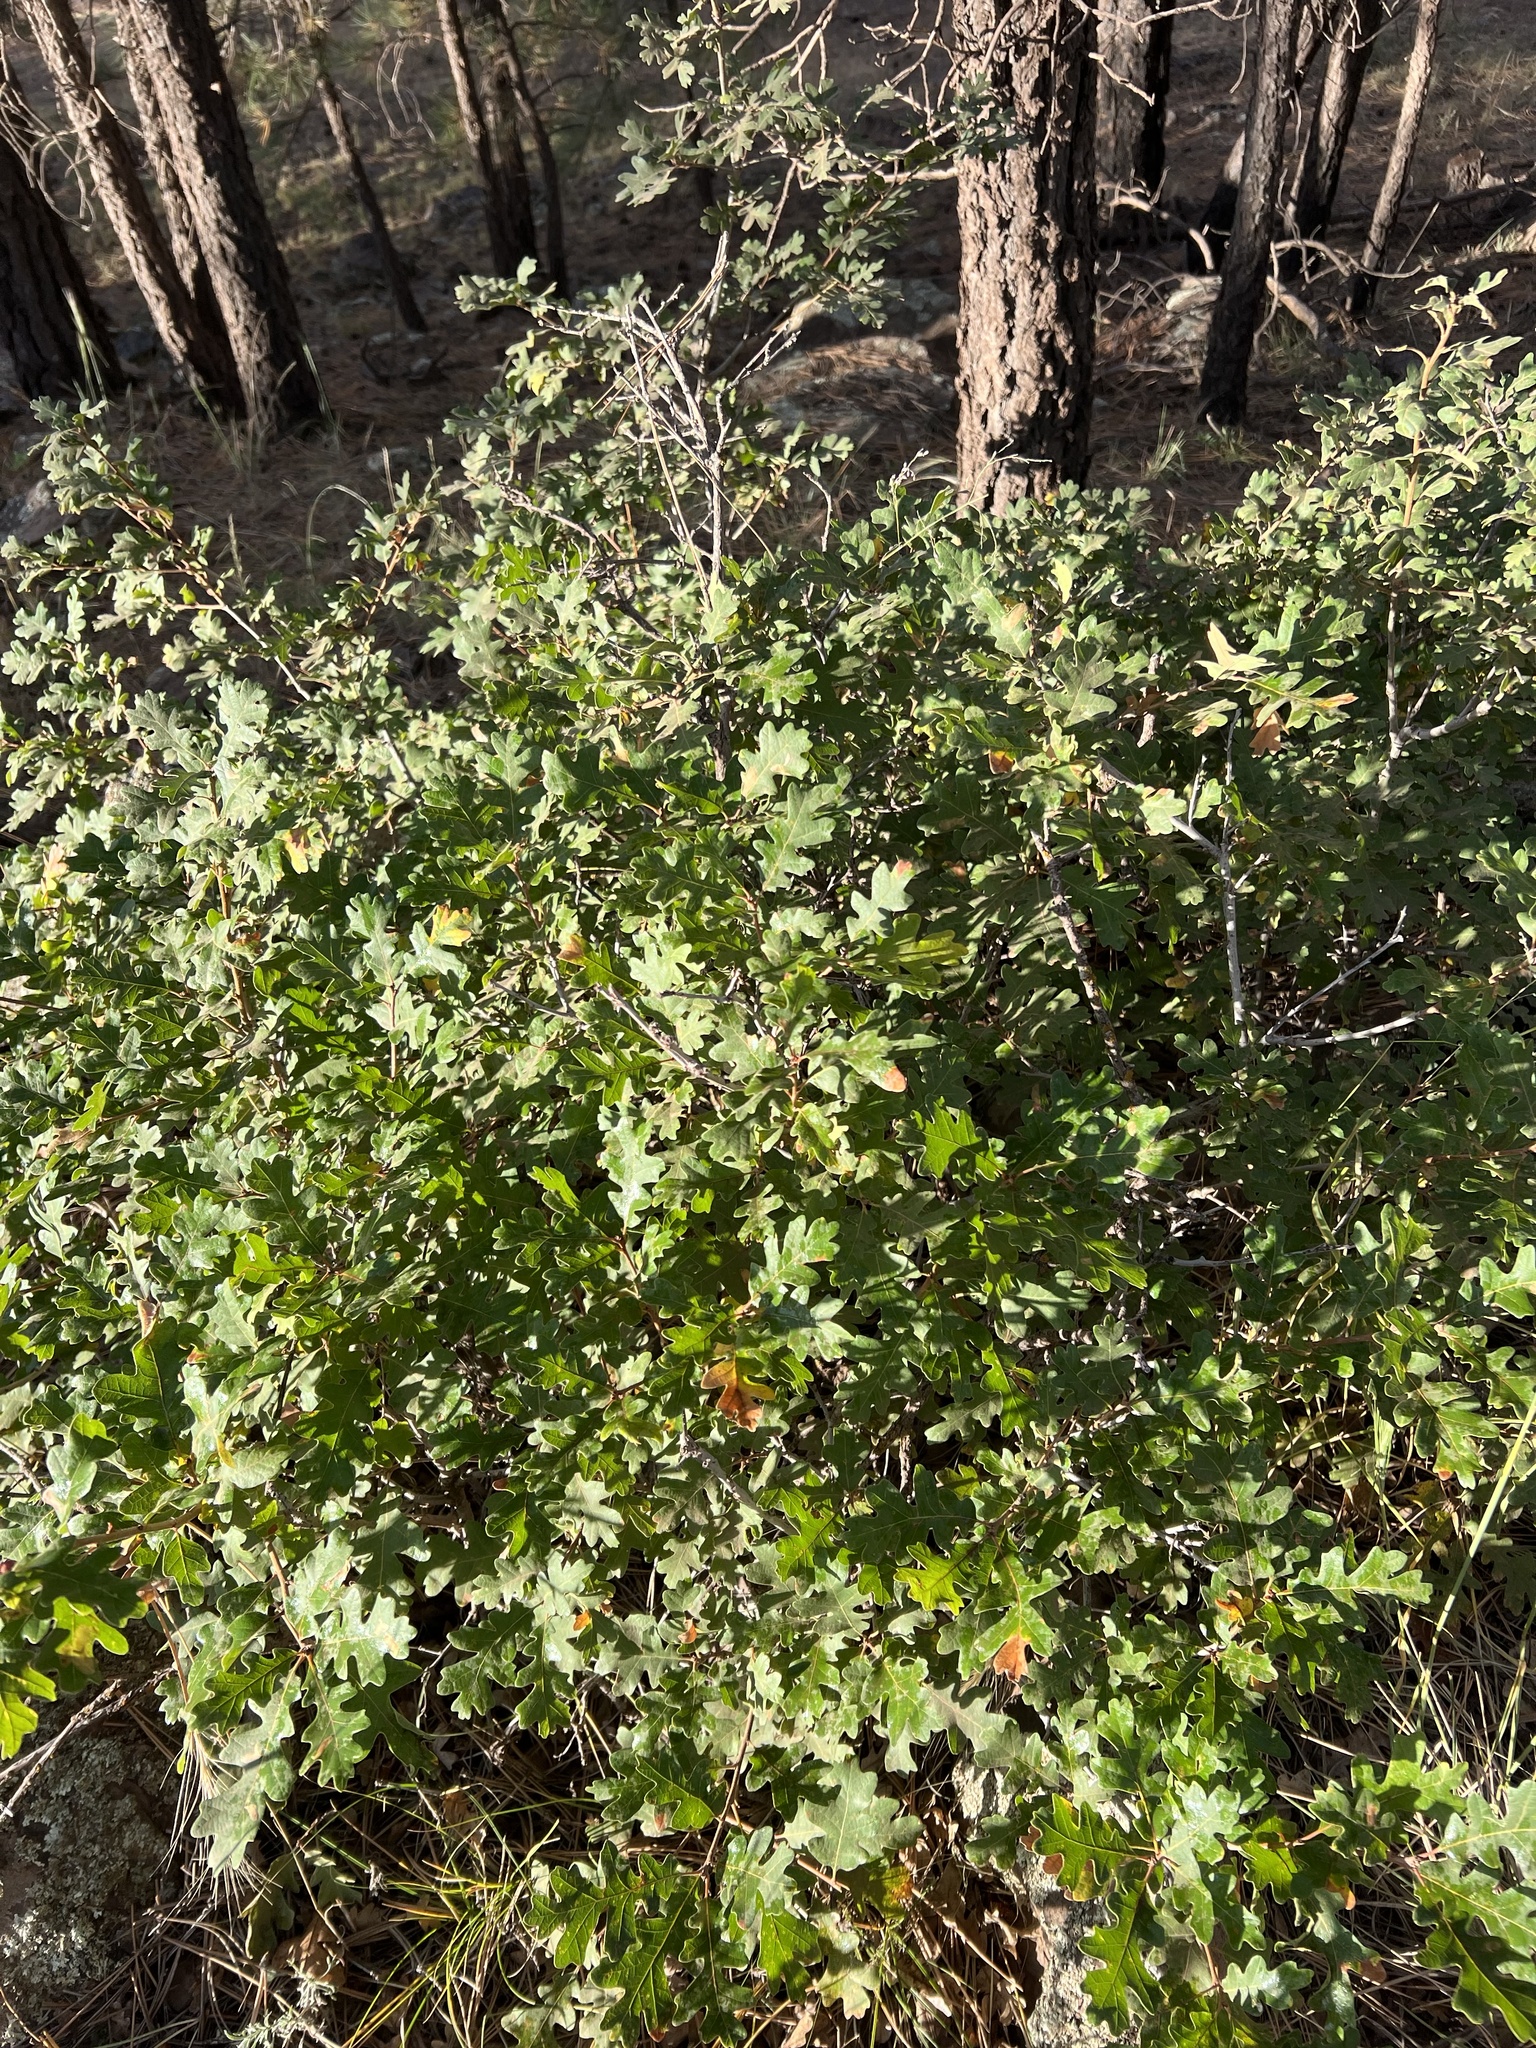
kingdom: Plantae
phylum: Tracheophyta
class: Magnoliopsida
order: Fagales
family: Fagaceae
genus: Quercus
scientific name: Quercus gambelii
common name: Gambel oak
